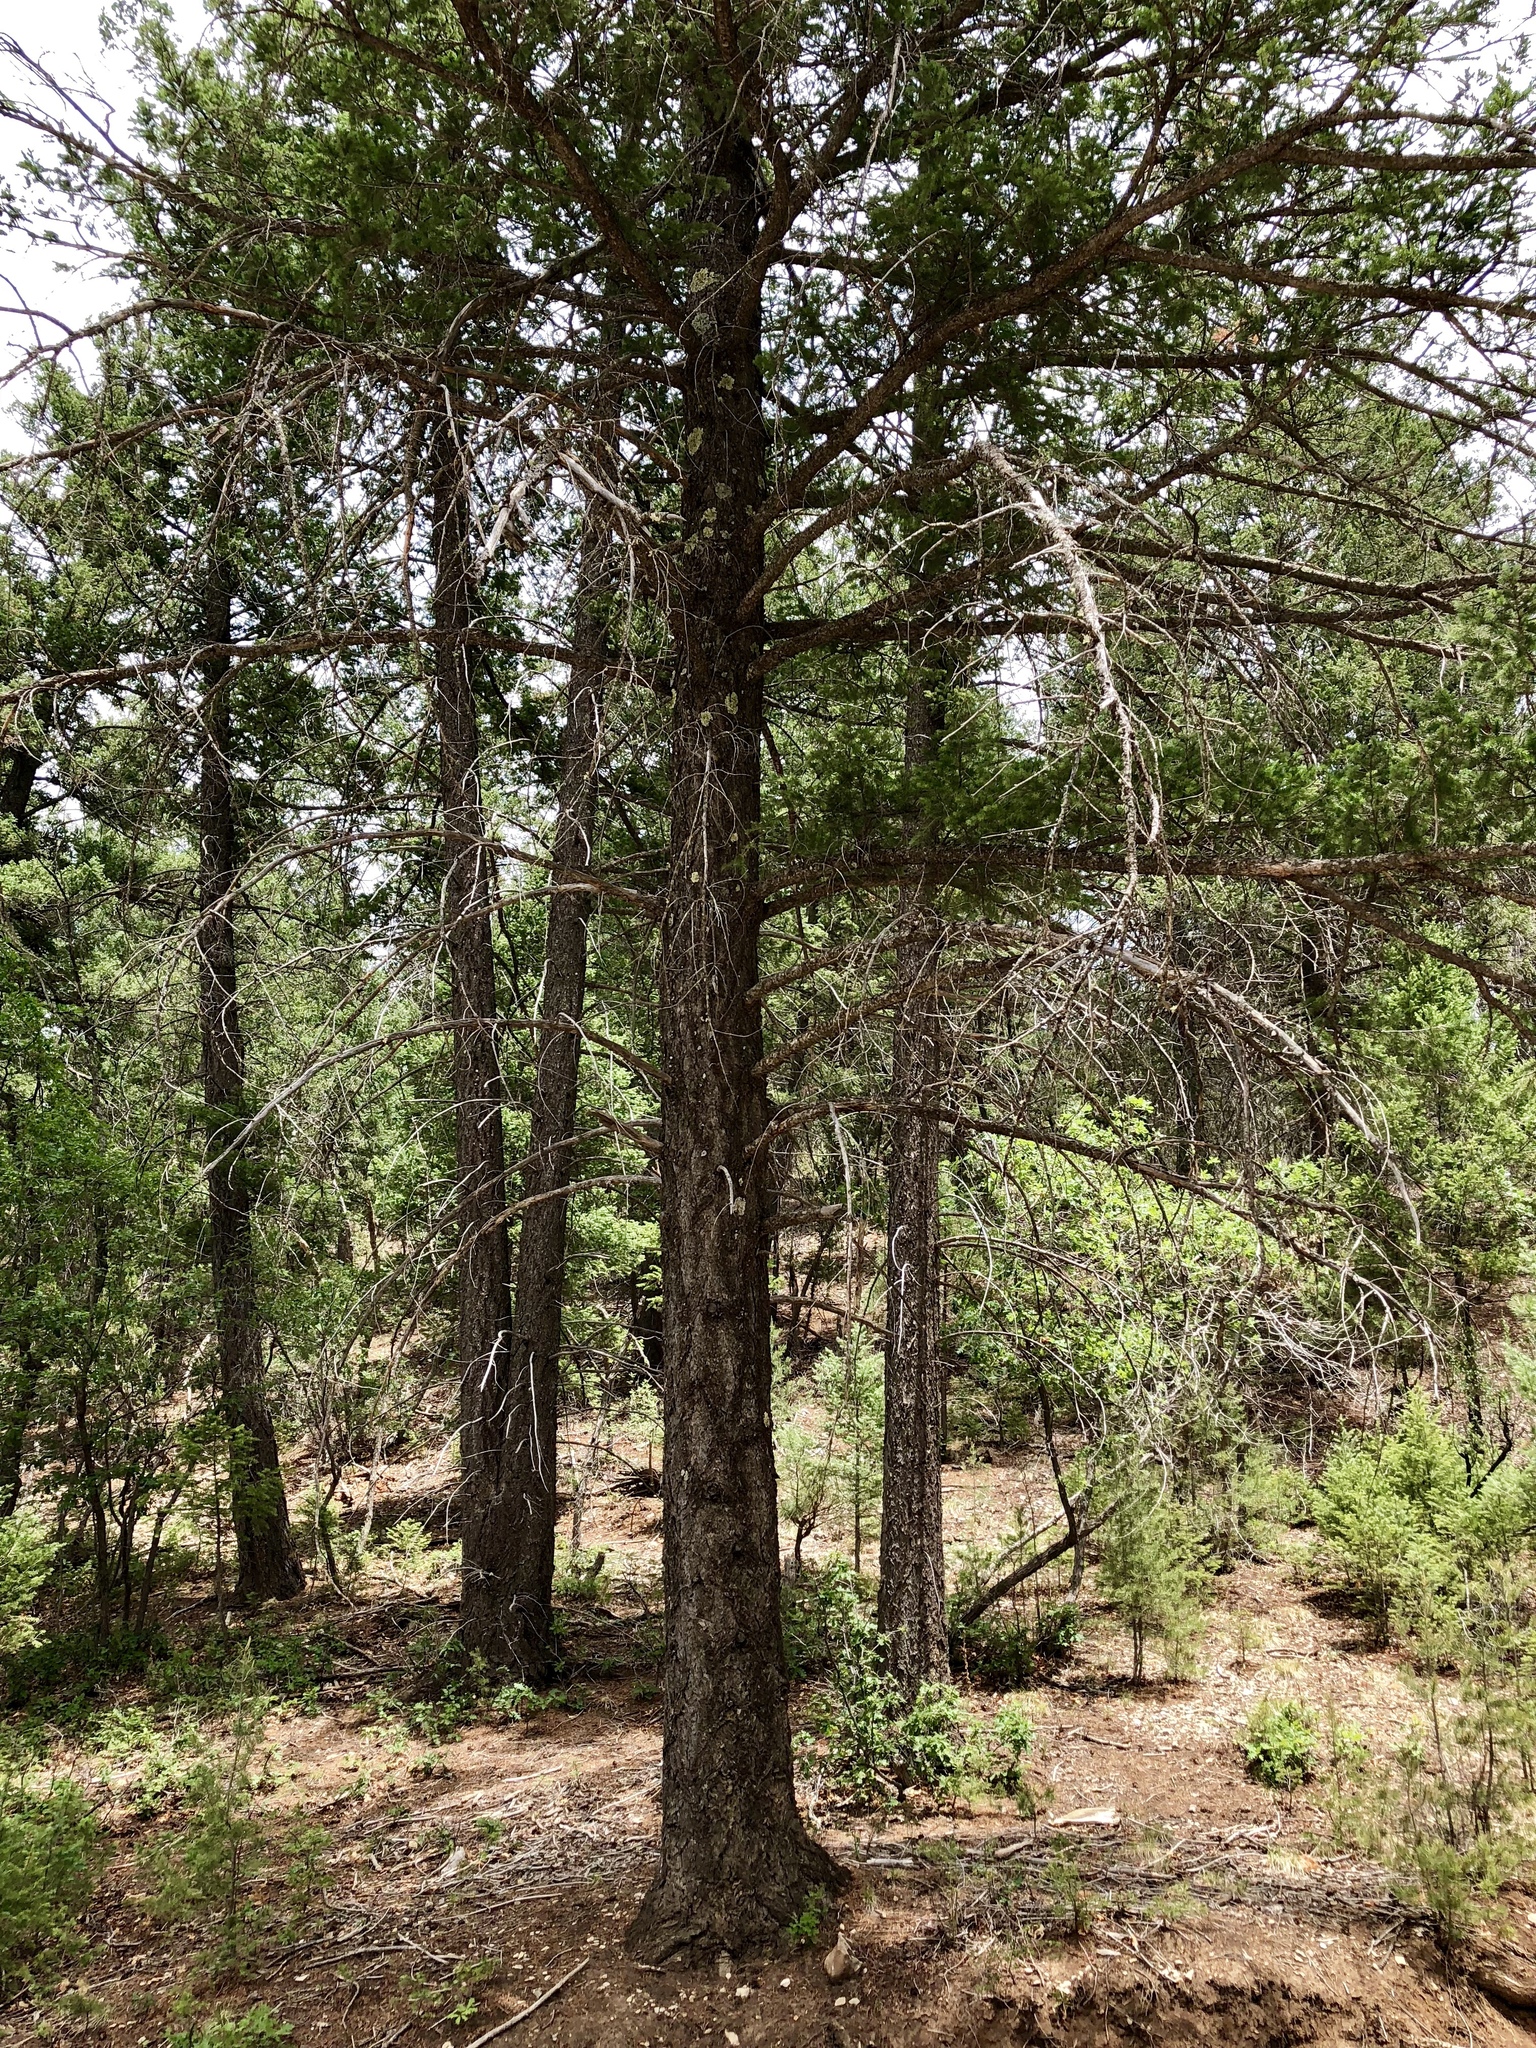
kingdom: Plantae
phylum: Tracheophyta
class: Pinopsida
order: Pinales
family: Pinaceae
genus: Pseudotsuga
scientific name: Pseudotsuga menziesii
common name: Douglas fir
